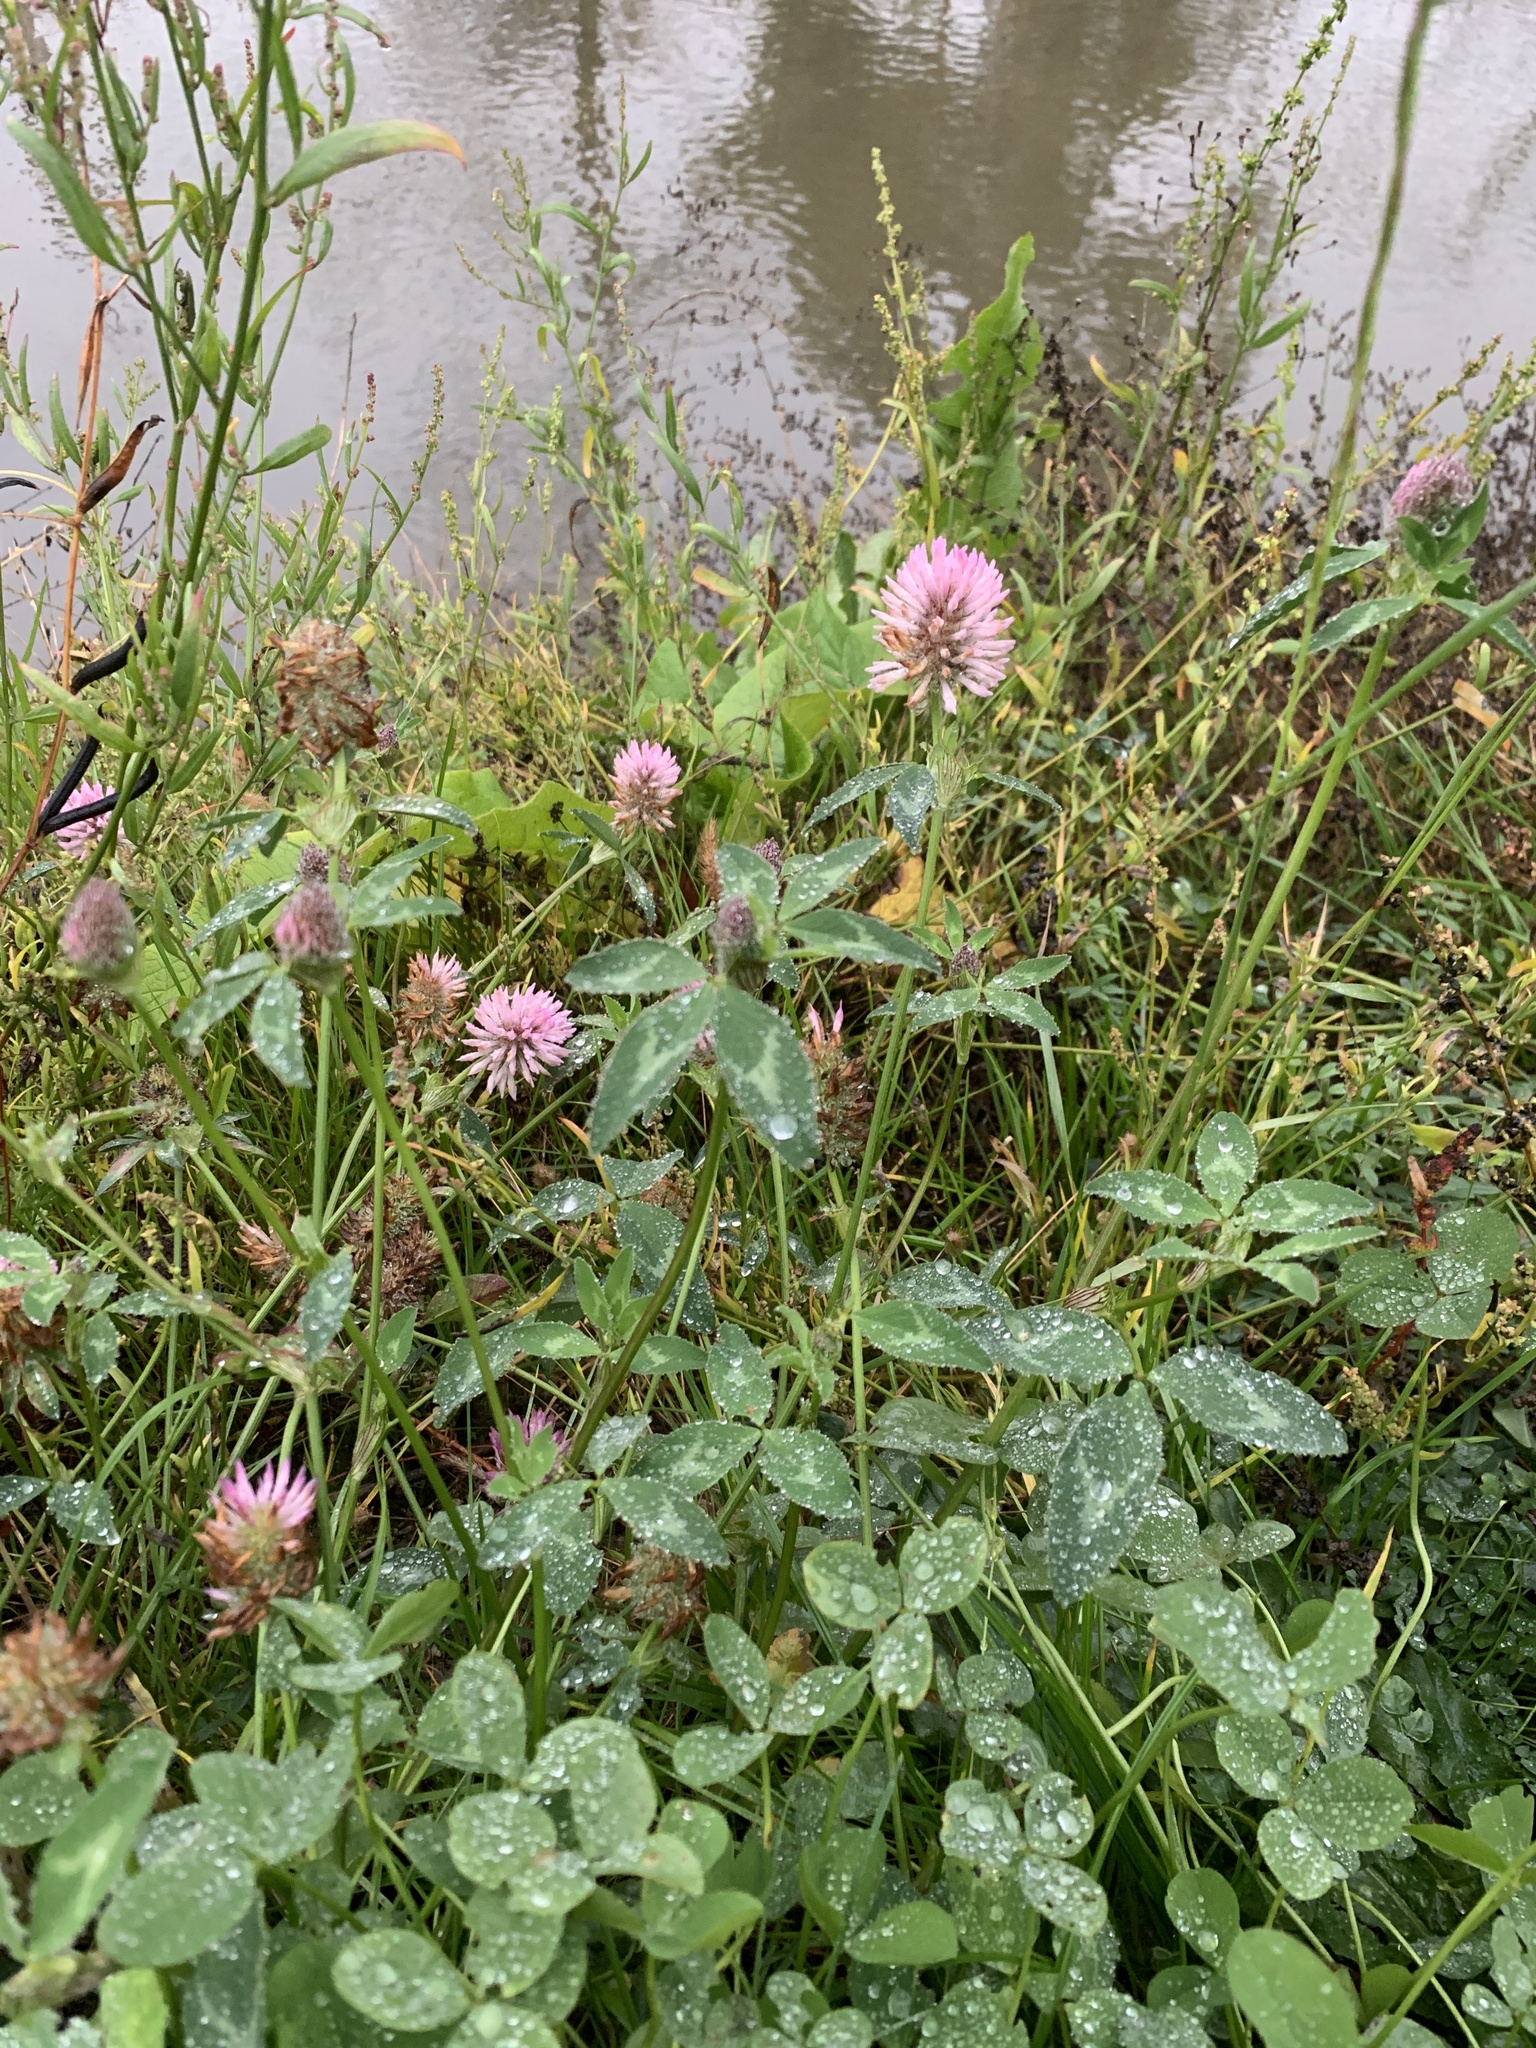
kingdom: Plantae
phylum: Tracheophyta
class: Magnoliopsida
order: Fabales
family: Fabaceae
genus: Trifolium
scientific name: Trifolium pratense
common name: Red clover
